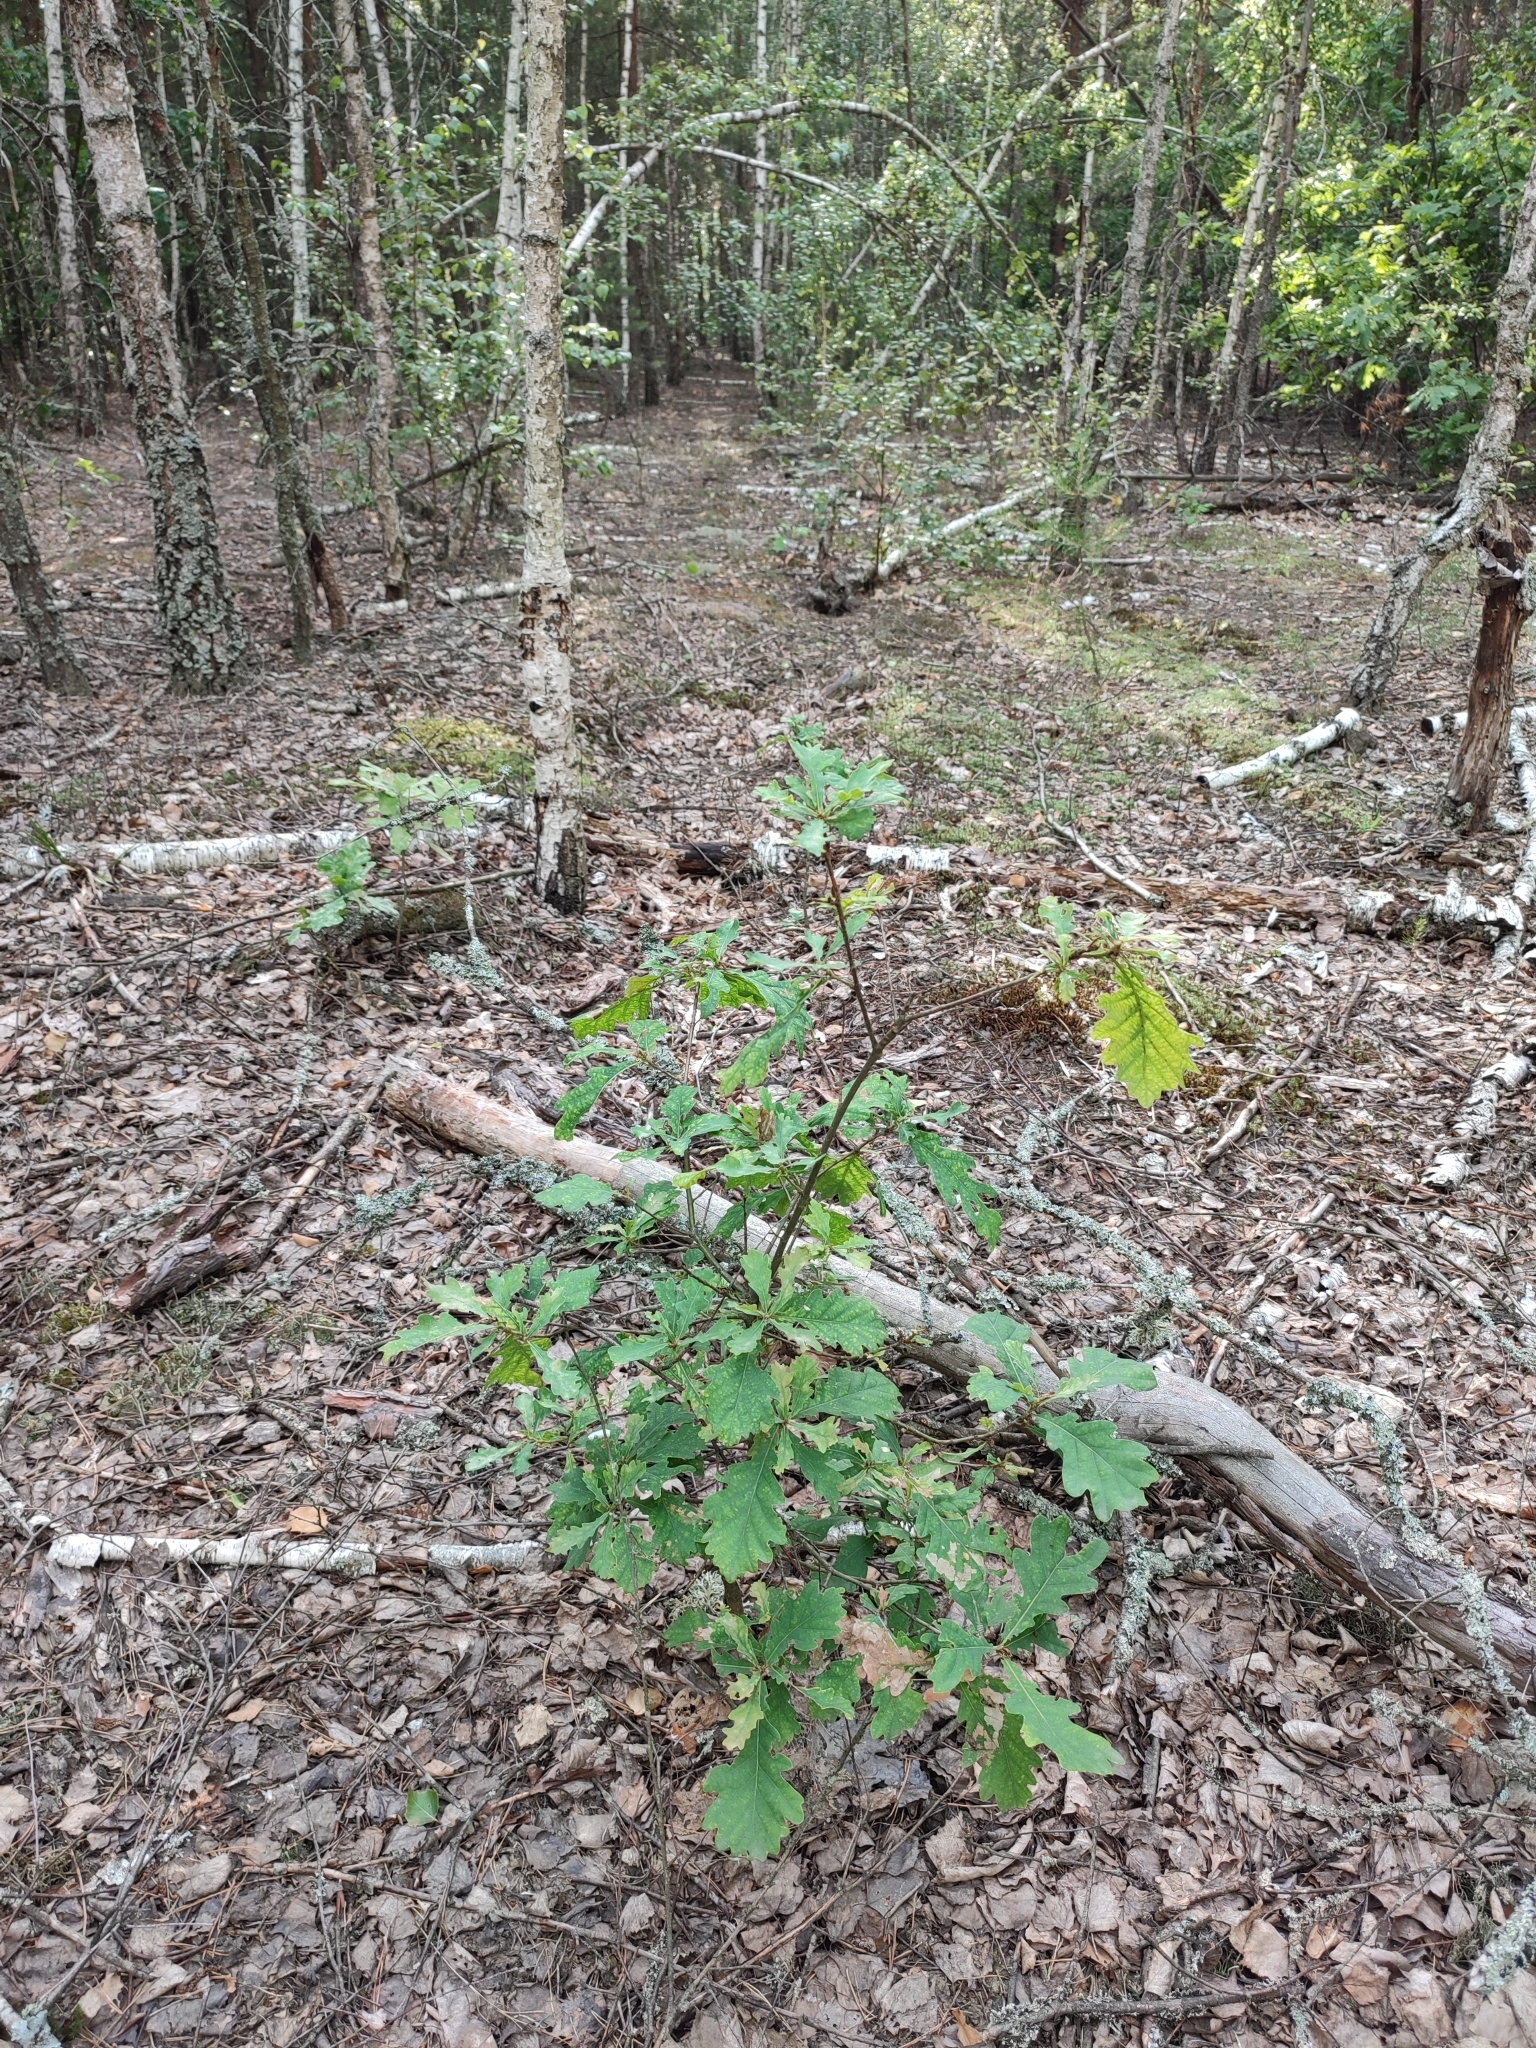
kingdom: Plantae
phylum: Tracheophyta
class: Magnoliopsida
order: Fagales
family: Fagaceae
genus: Quercus
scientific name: Quercus robur
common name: Pedunculate oak
